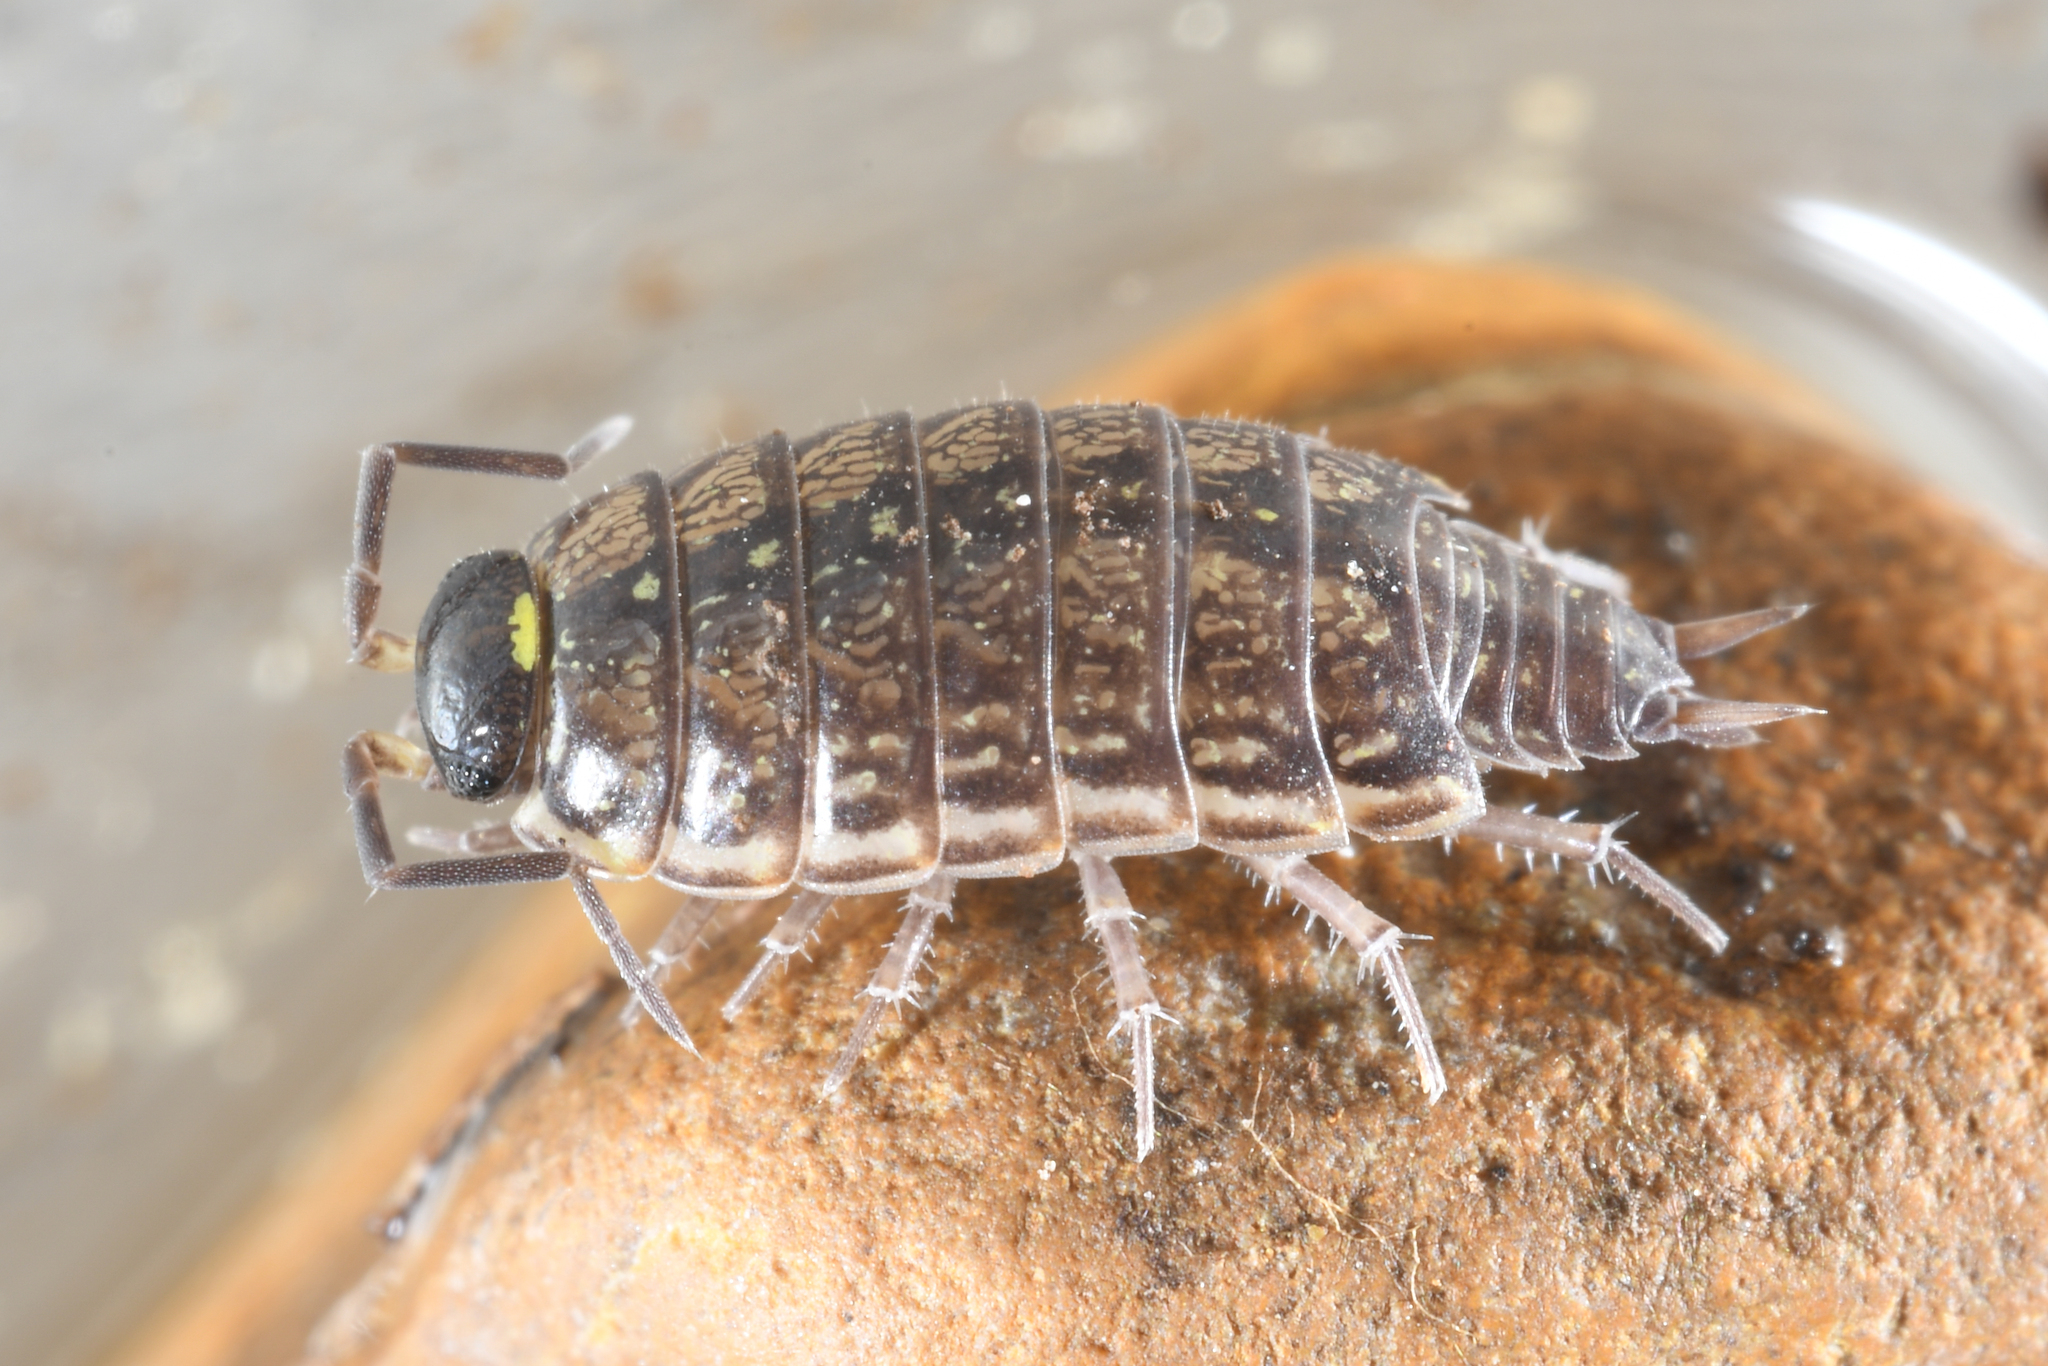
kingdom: Animalia
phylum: Arthropoda
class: Malacostraca
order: Isopoda
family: Philosciidae
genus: Philoscia
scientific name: Philoscia muscorum
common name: Common striped woodlouse
